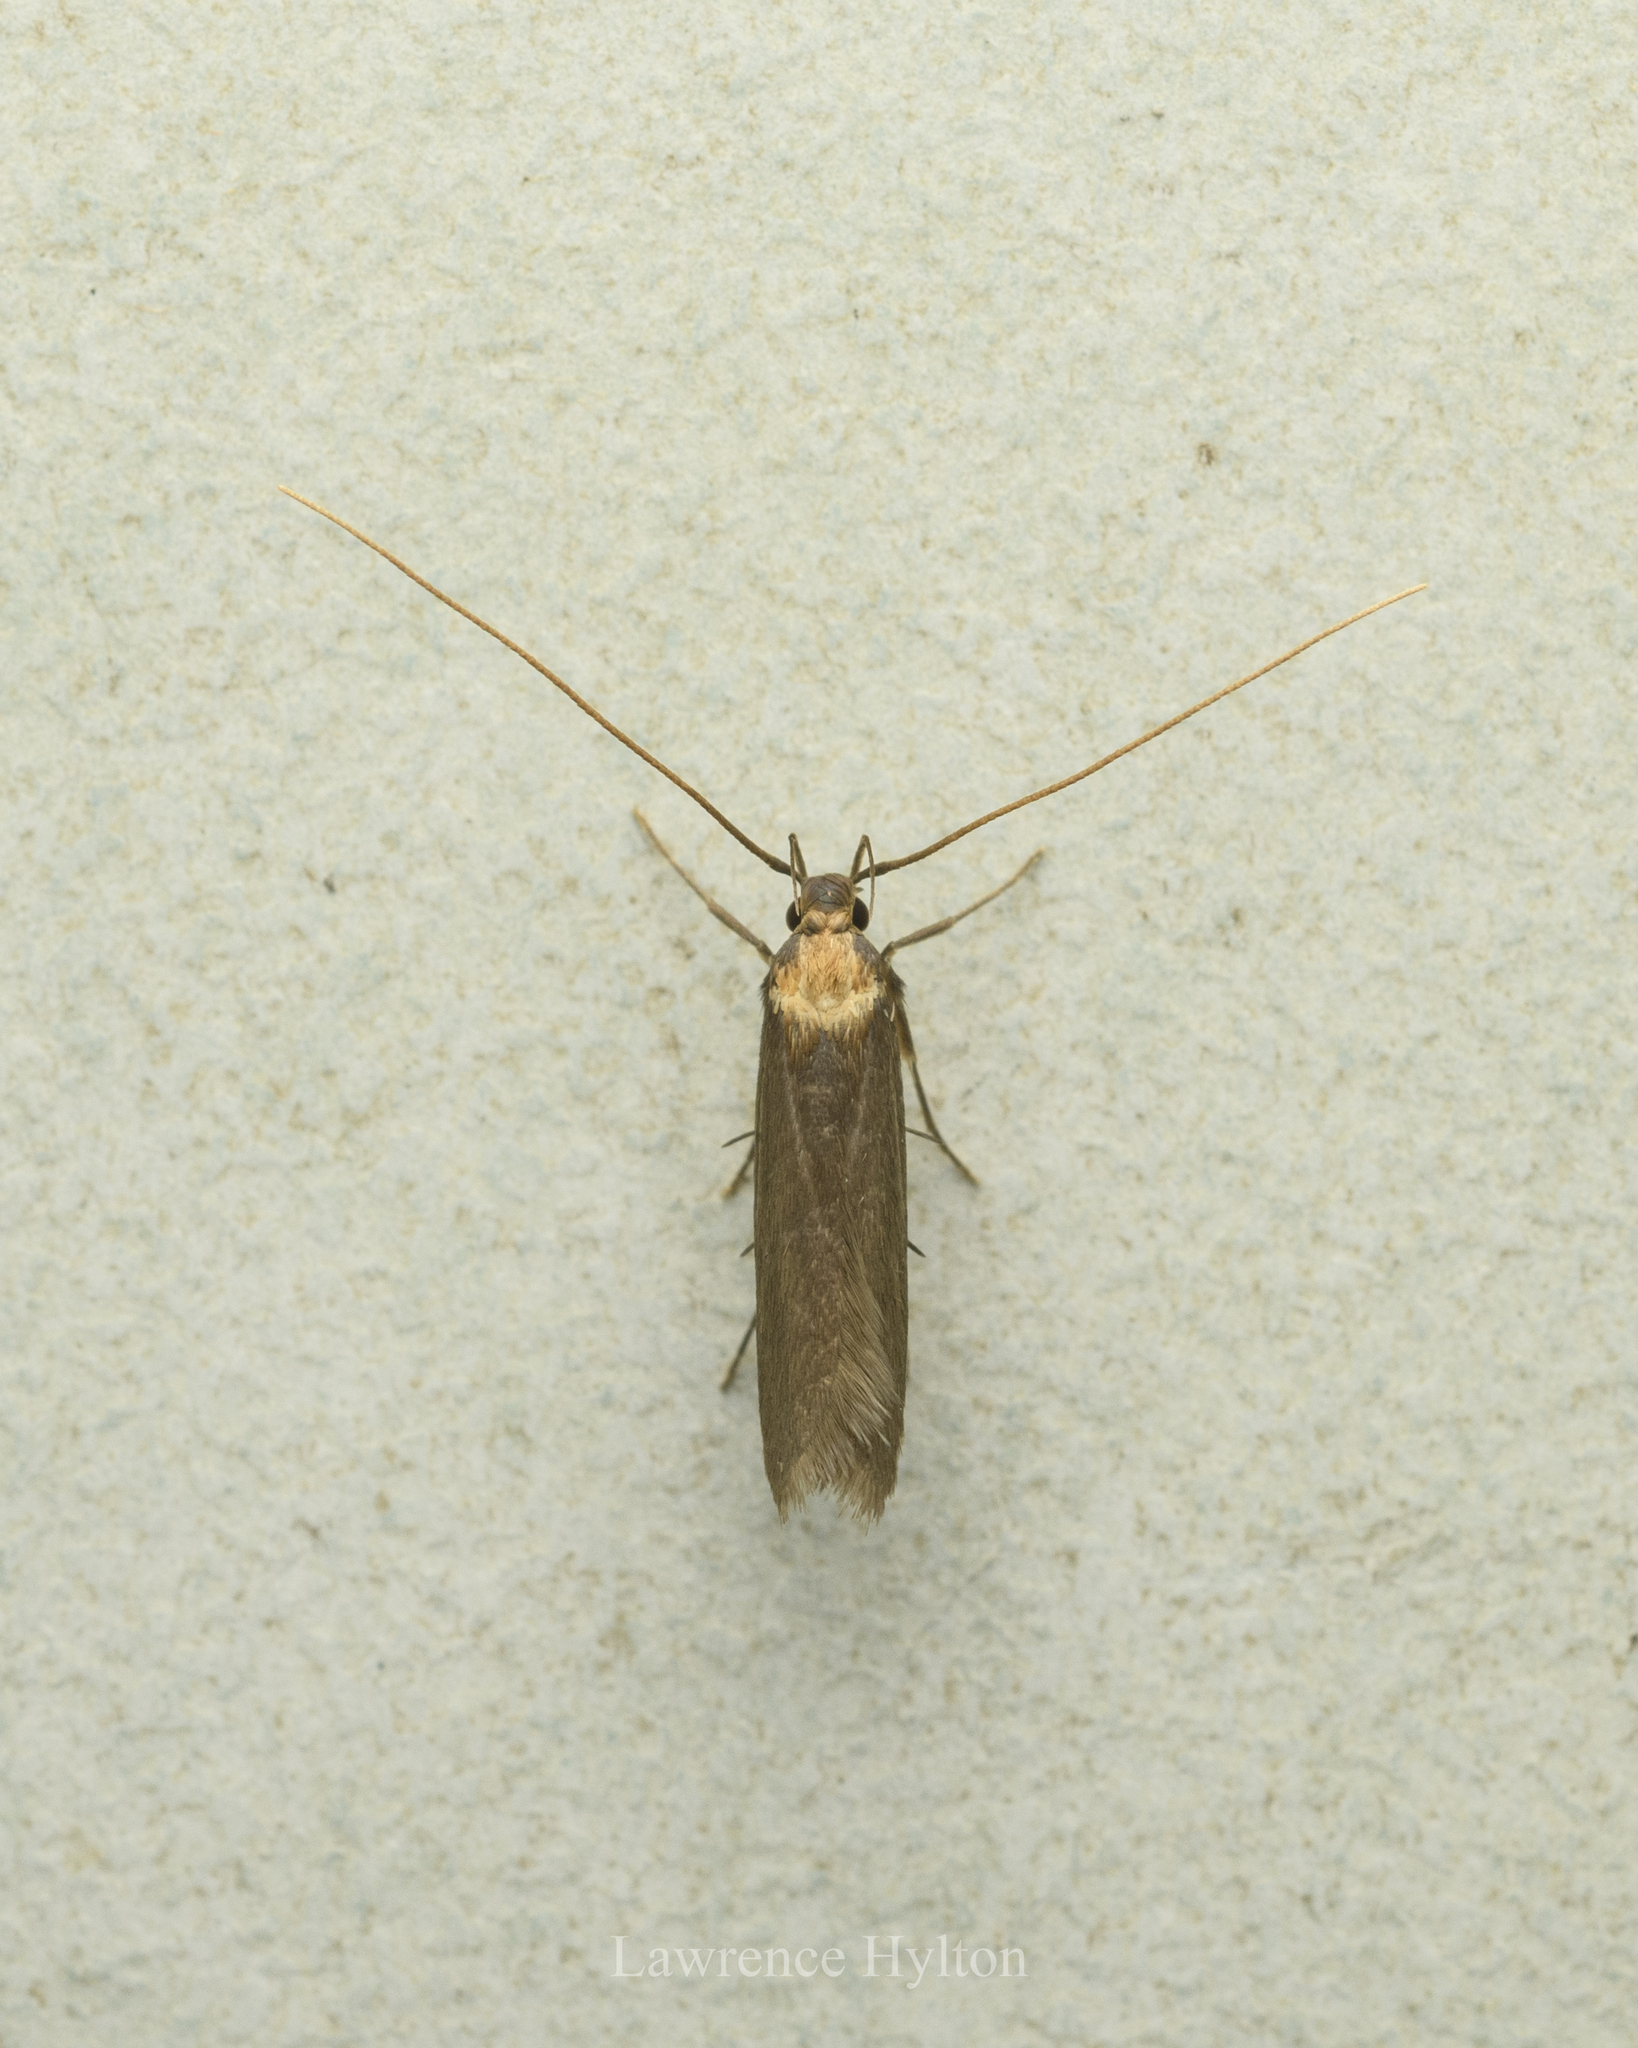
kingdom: Animalia
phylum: Arthropoda
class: Insecta
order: Lepidoptera
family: Lecithoceridae
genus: Tegenocharis
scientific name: Tegenocharis tenebrans
